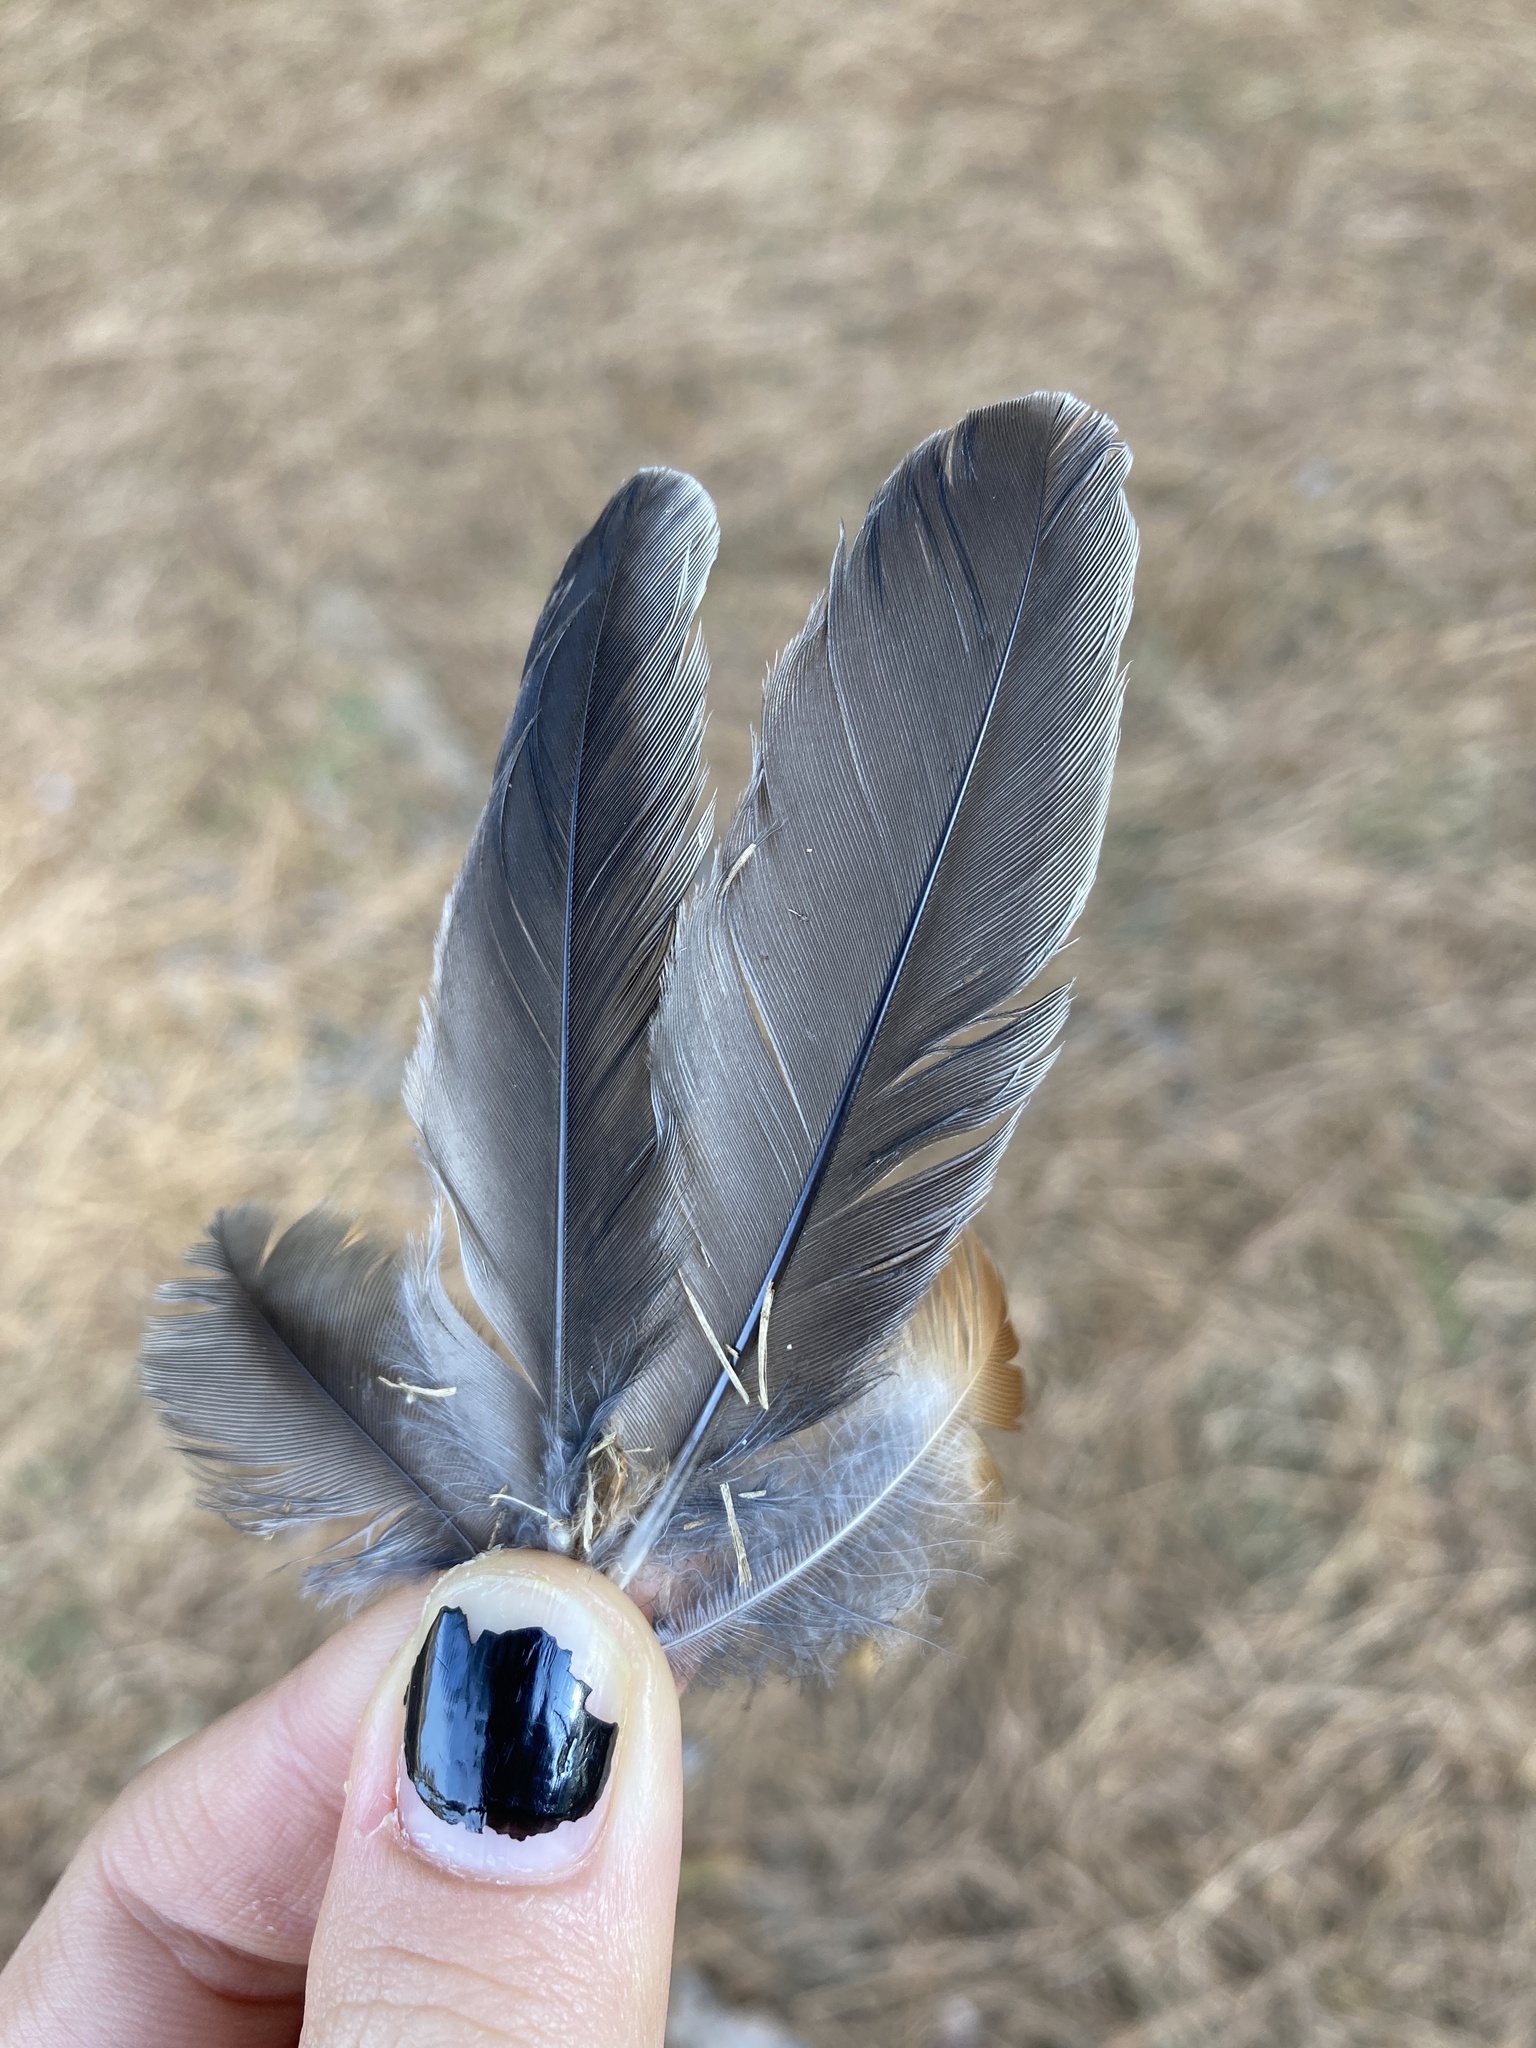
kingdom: Animalia
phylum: Chordata
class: Aves
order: Passeriformes
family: Turdidae
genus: Turdus
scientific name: Turdus migratorius
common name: American robin
